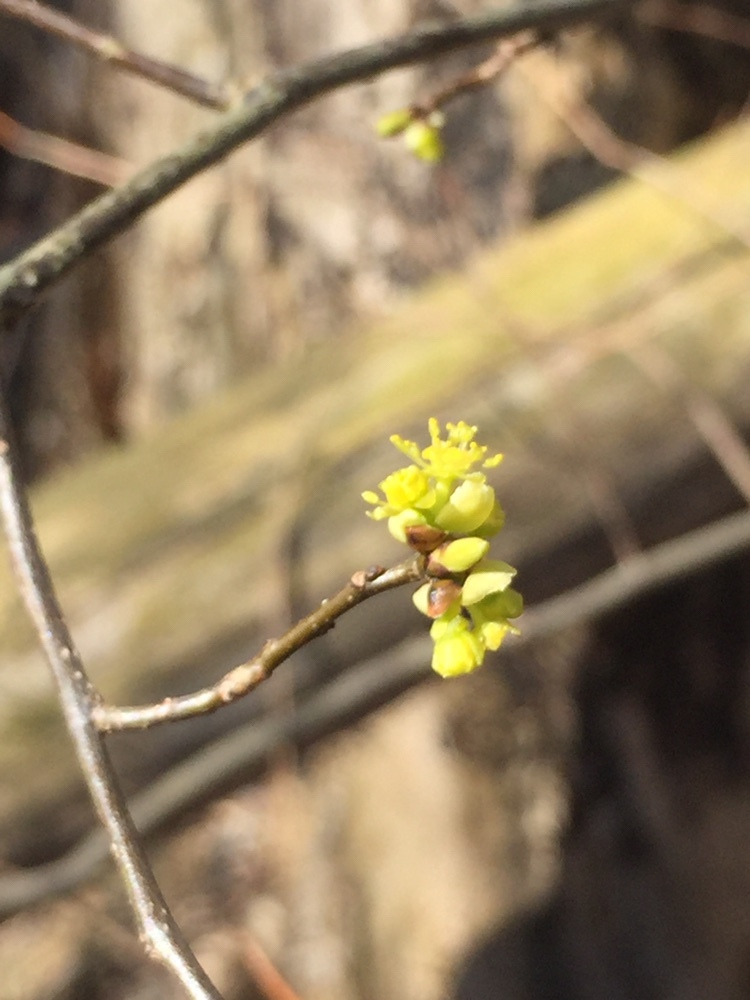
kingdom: Plantae
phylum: Tracheophyta
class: Magnoliopsida
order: Laurales
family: Lauraceae
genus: Lindera
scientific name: Lindera benzoin
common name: Spicebush
